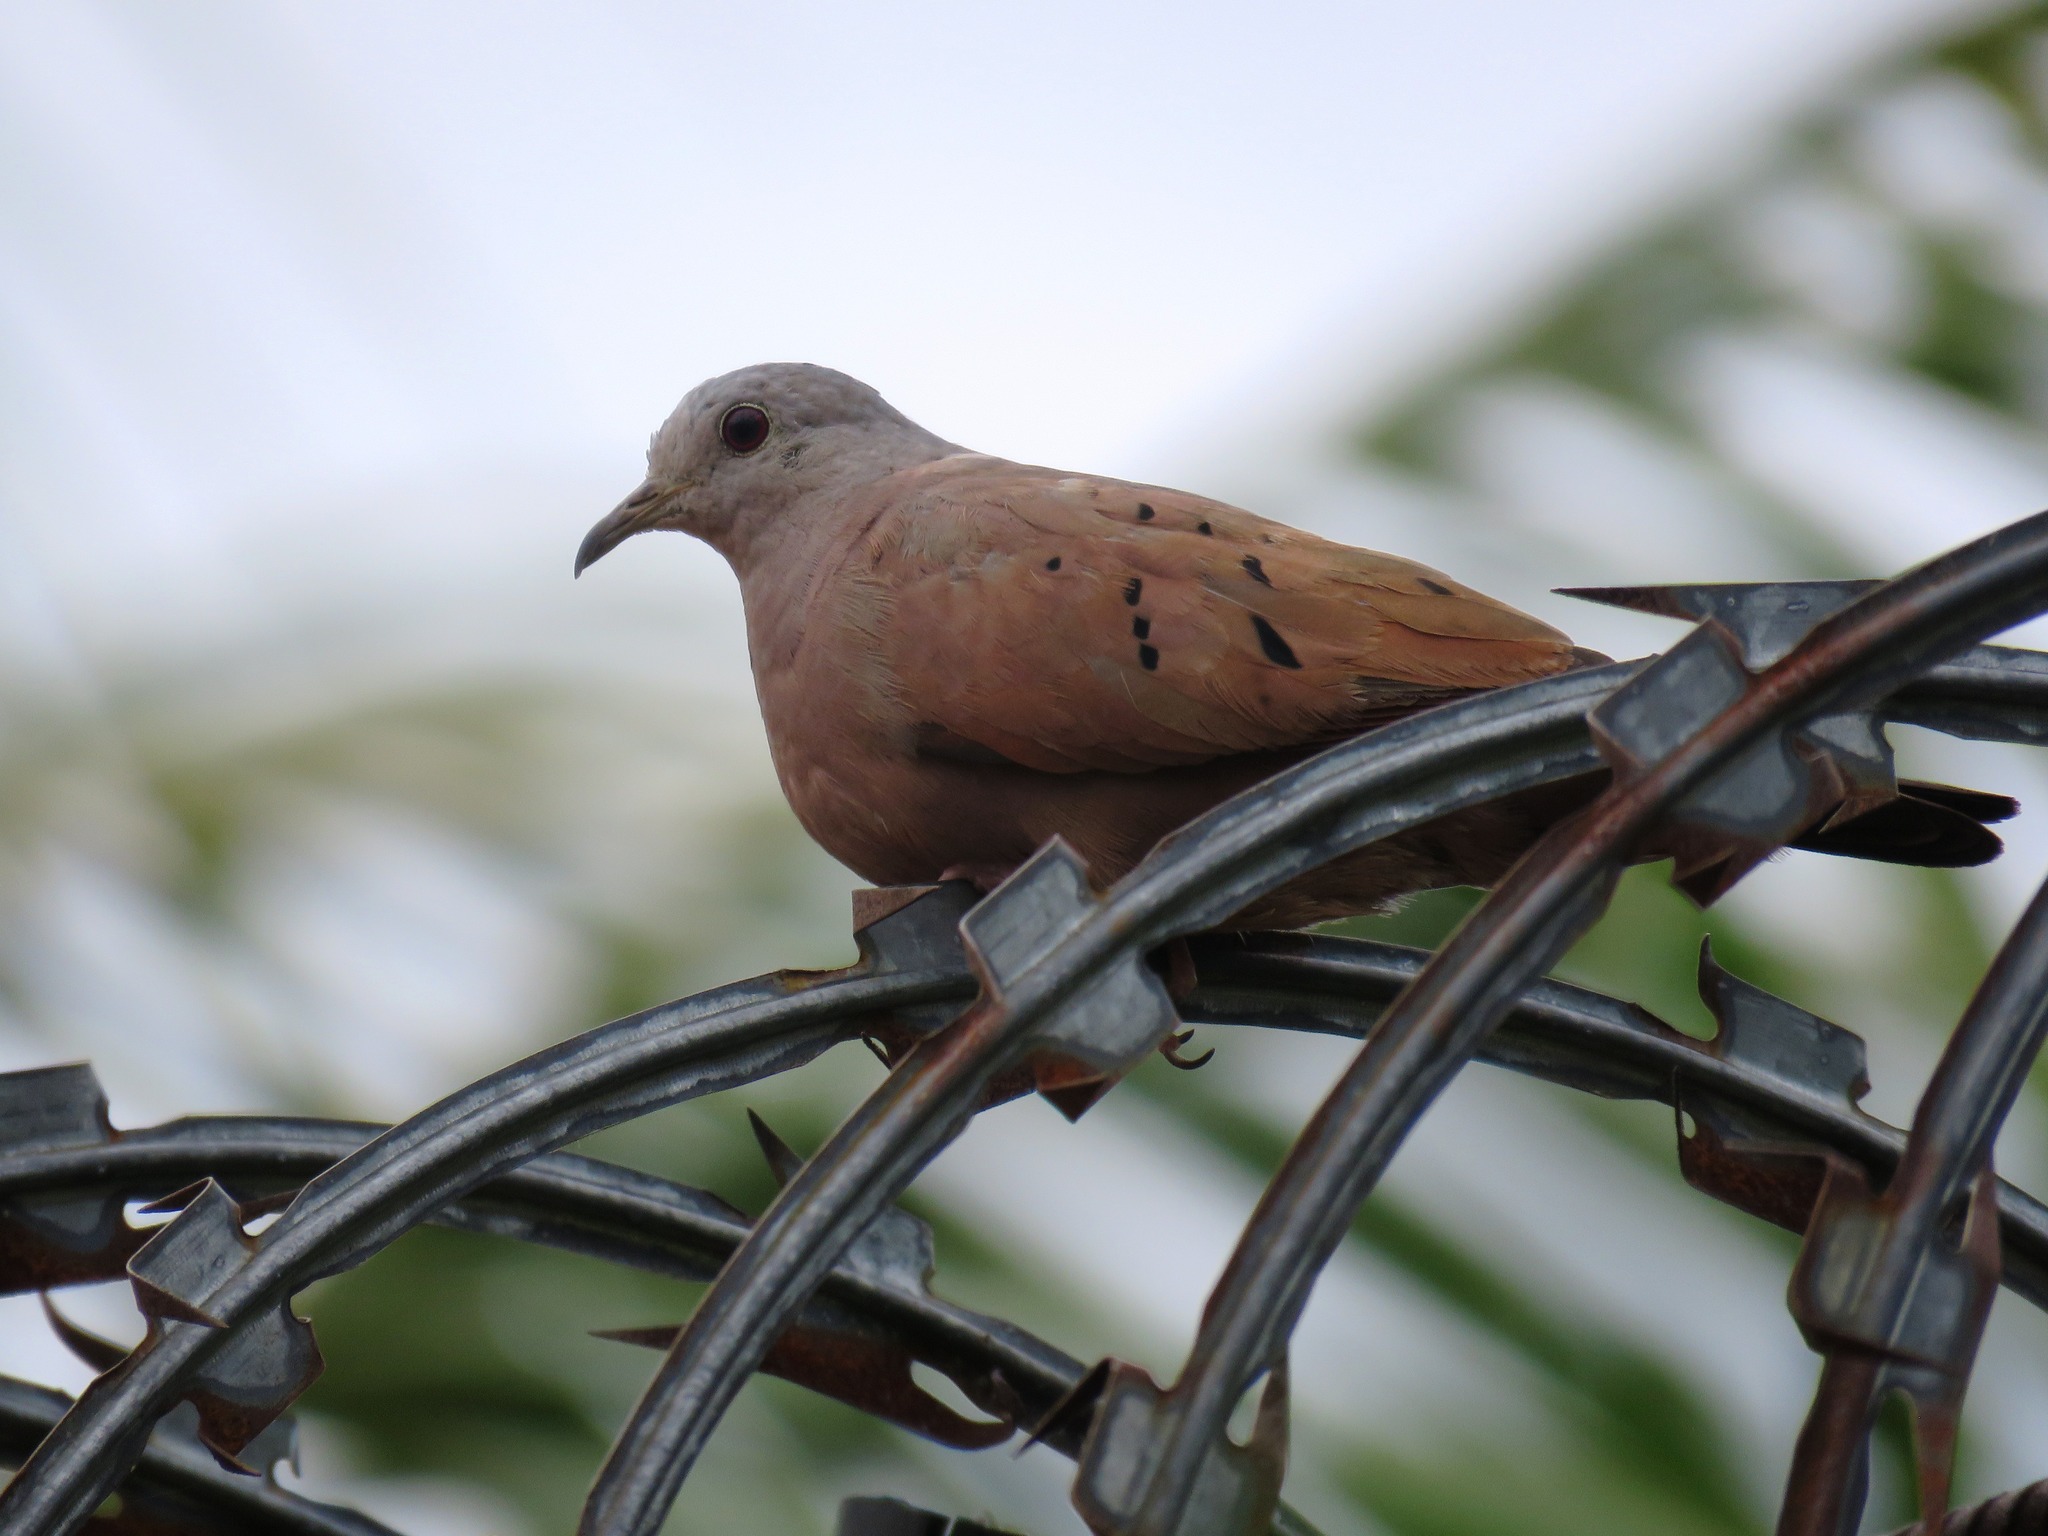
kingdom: Animalia
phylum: Chordata
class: Aves
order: Columbiformes
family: Columbidae
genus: Columbina
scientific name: Columbina talpacoti
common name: Ruddy ground dove
